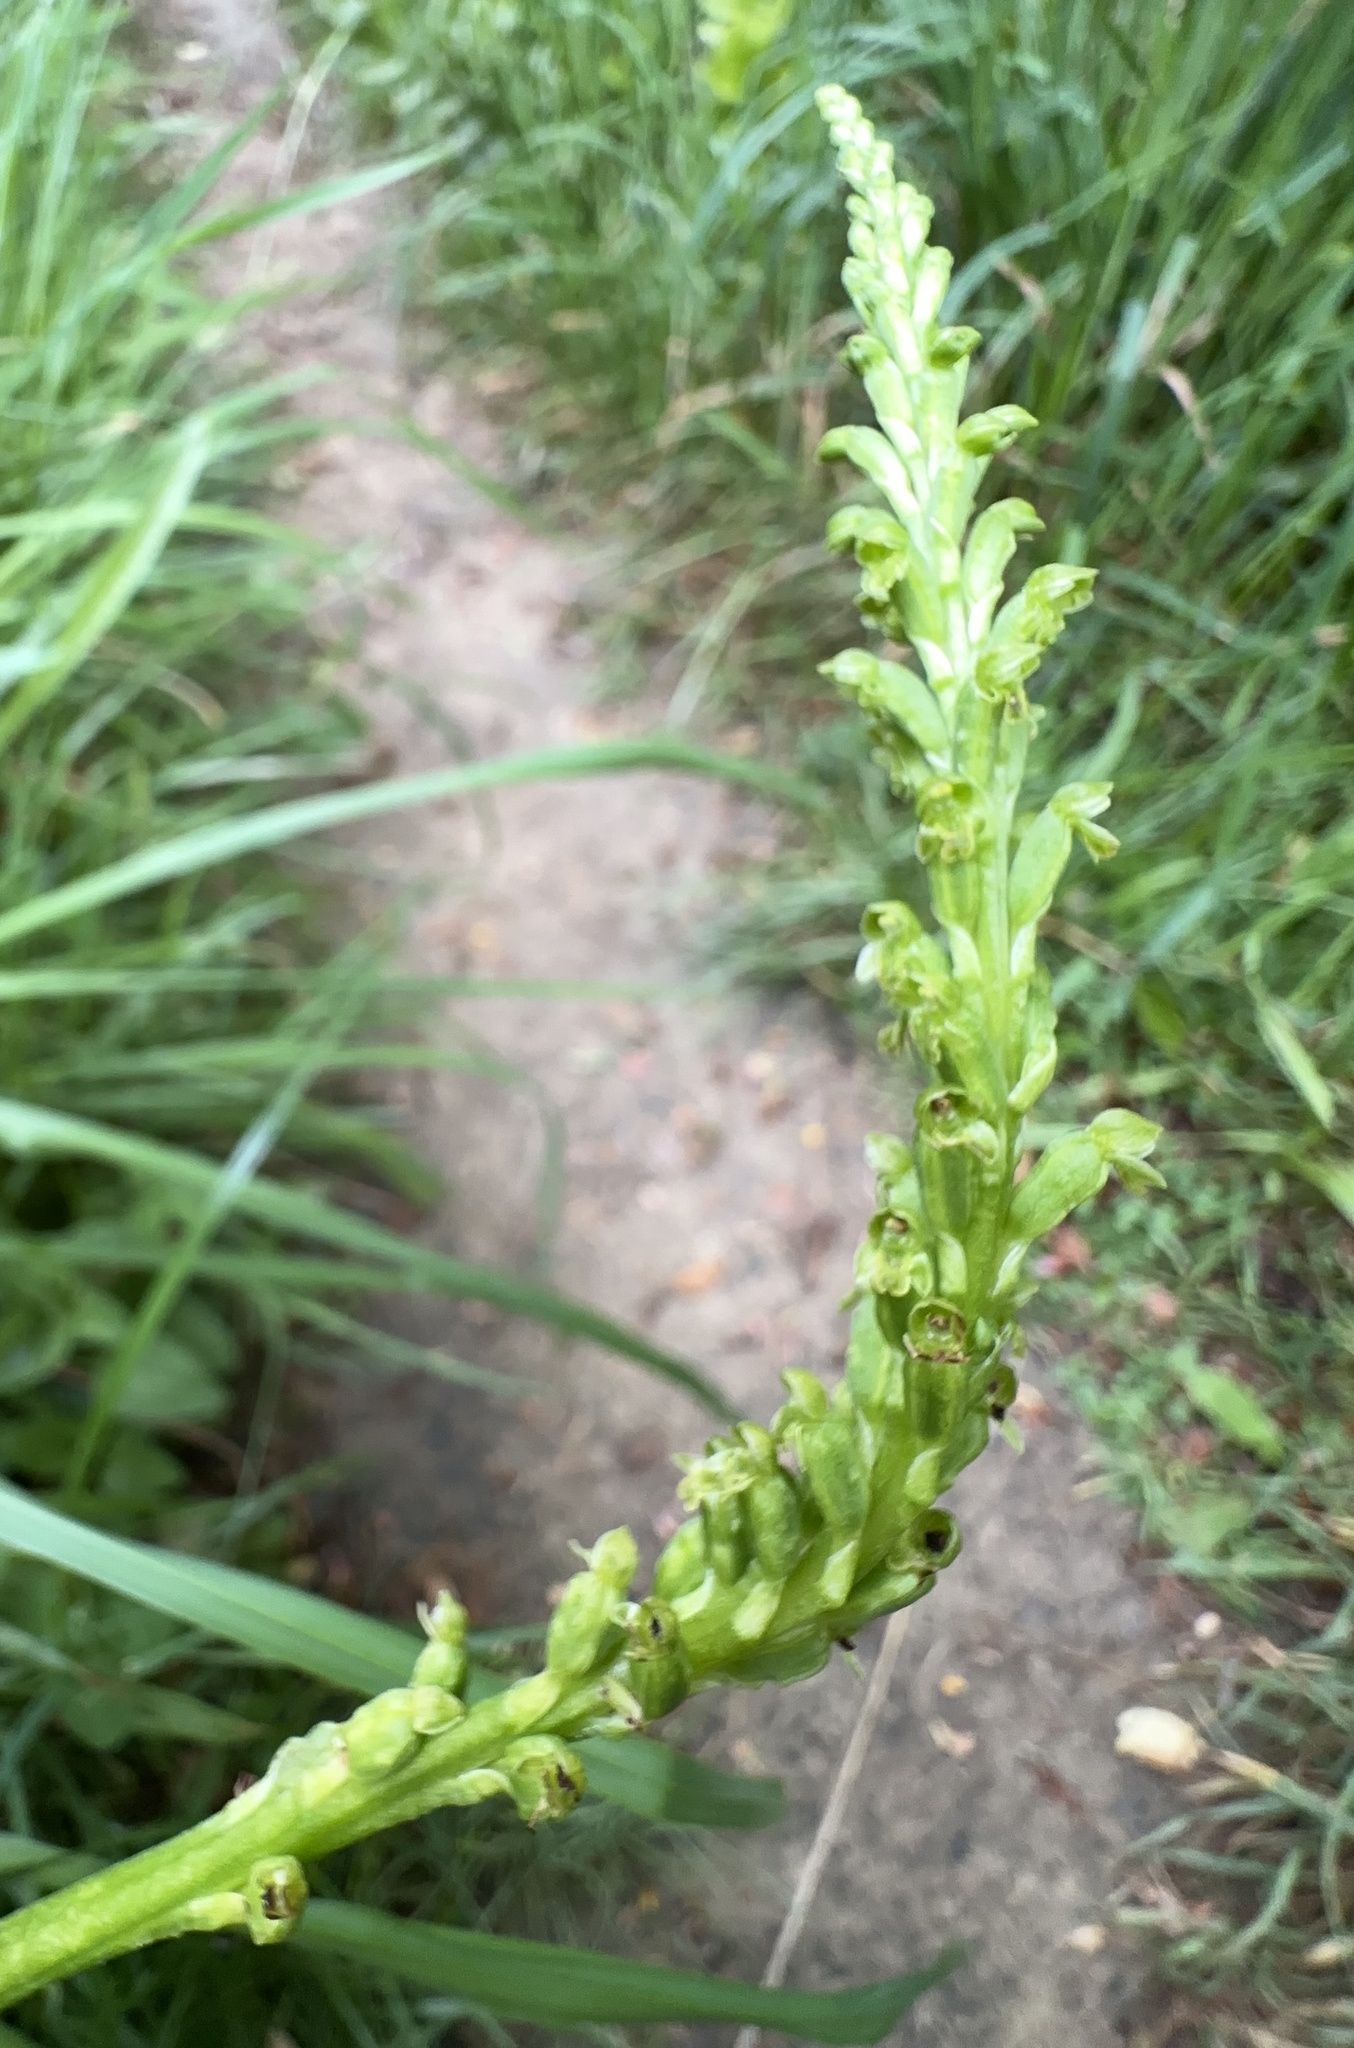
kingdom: Plantae
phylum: Tracheophyta
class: Liliopsida
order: Asparagales
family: Orchidaceae
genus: Microtis
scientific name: Microtis unifolia
